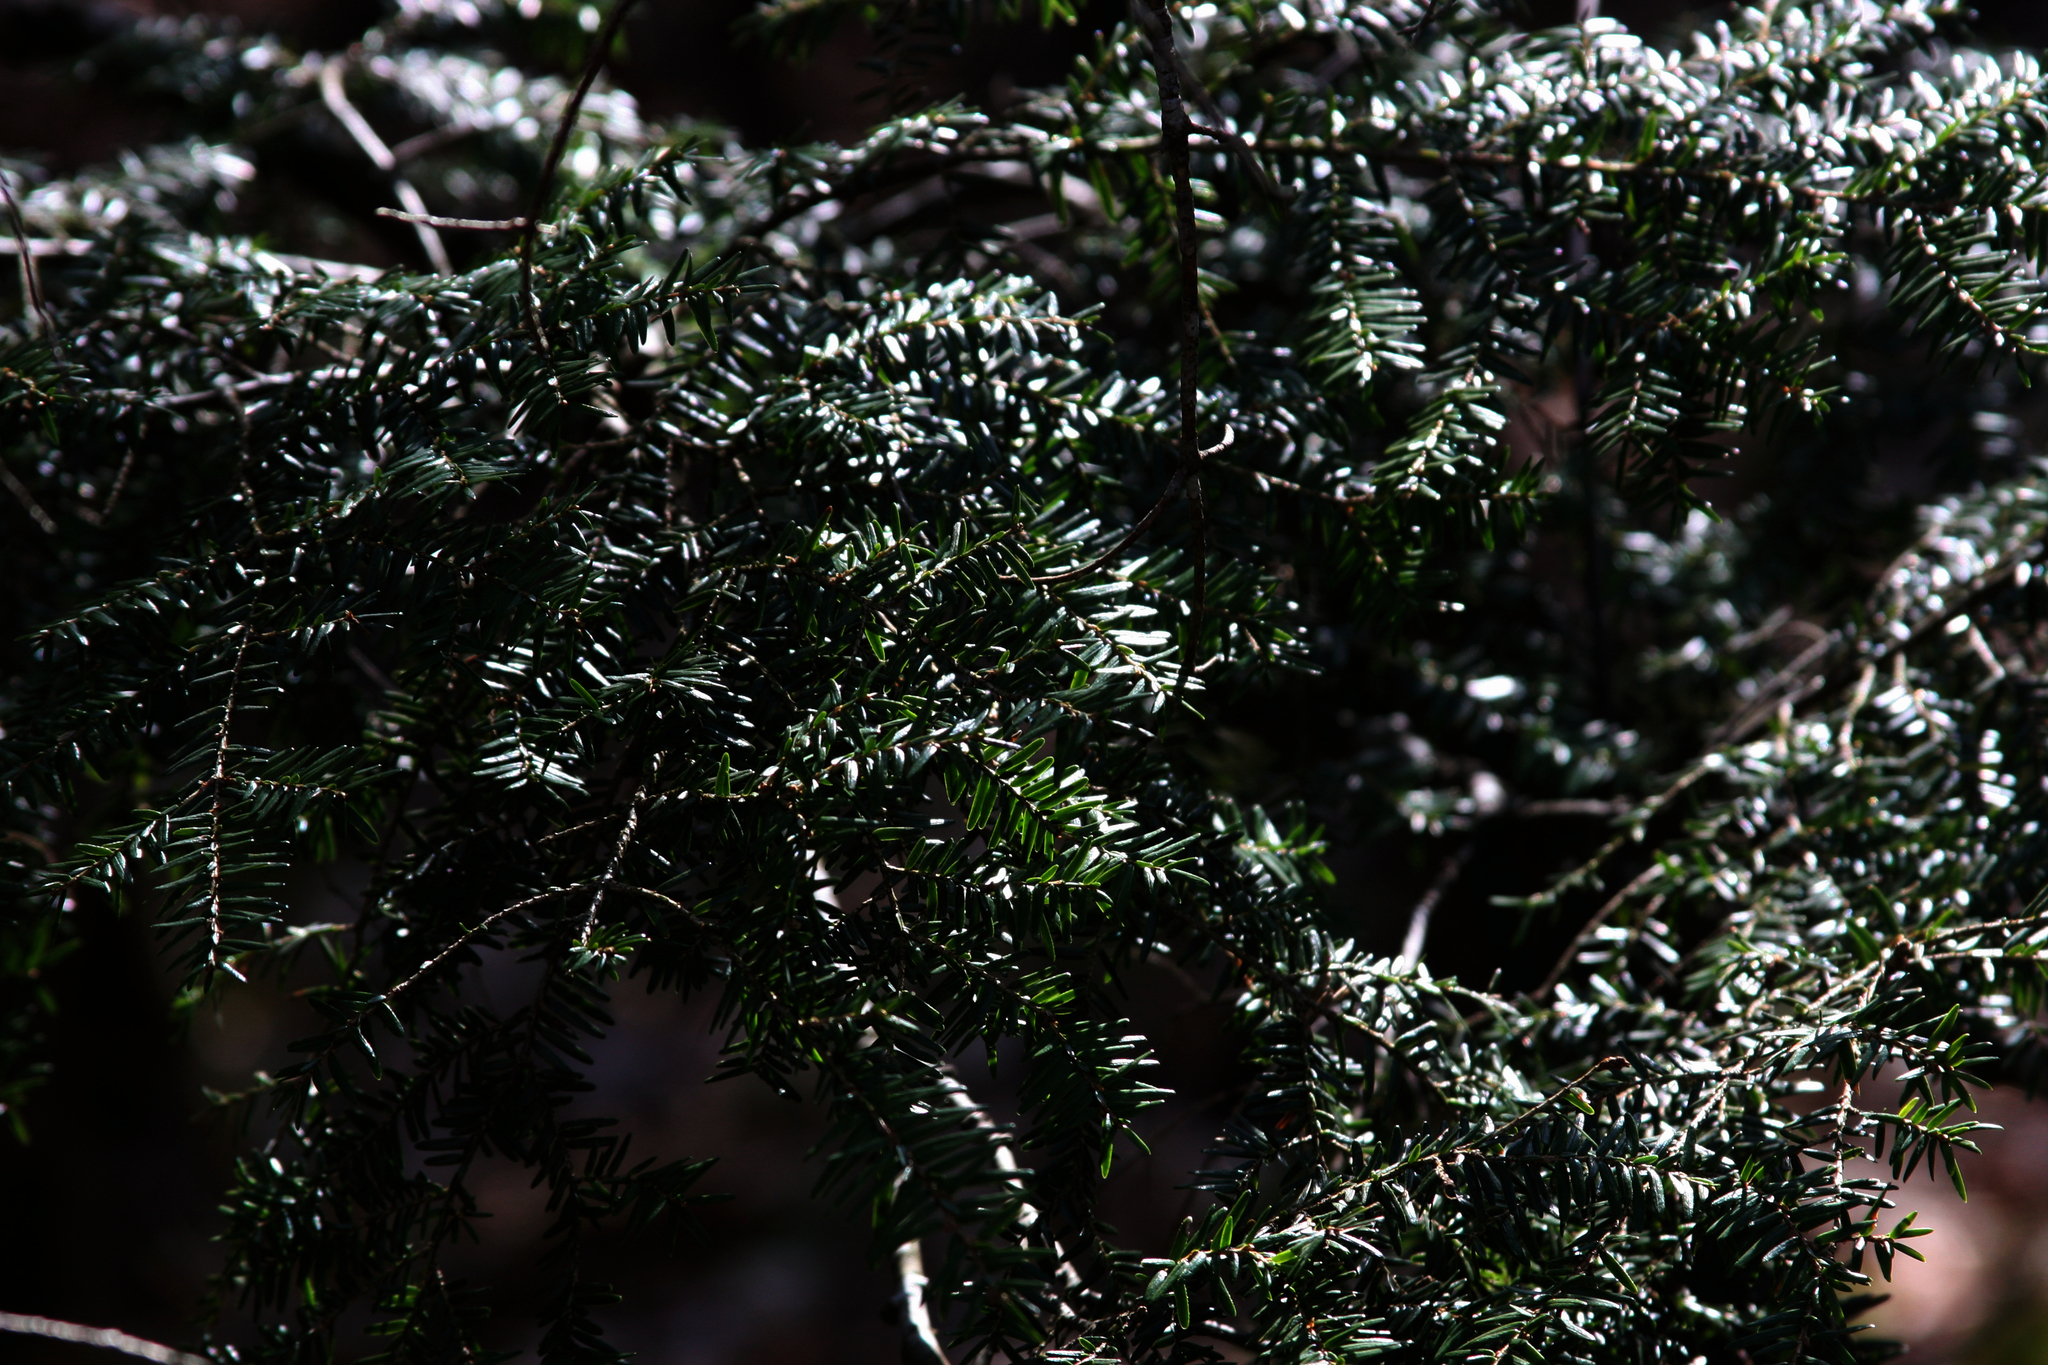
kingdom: Plantae
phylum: Tracheophyta
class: Pinopsida
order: Pinales
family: Pinaceae
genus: Tsuga
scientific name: Tsuga canadensis
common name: Eastern hemlock
